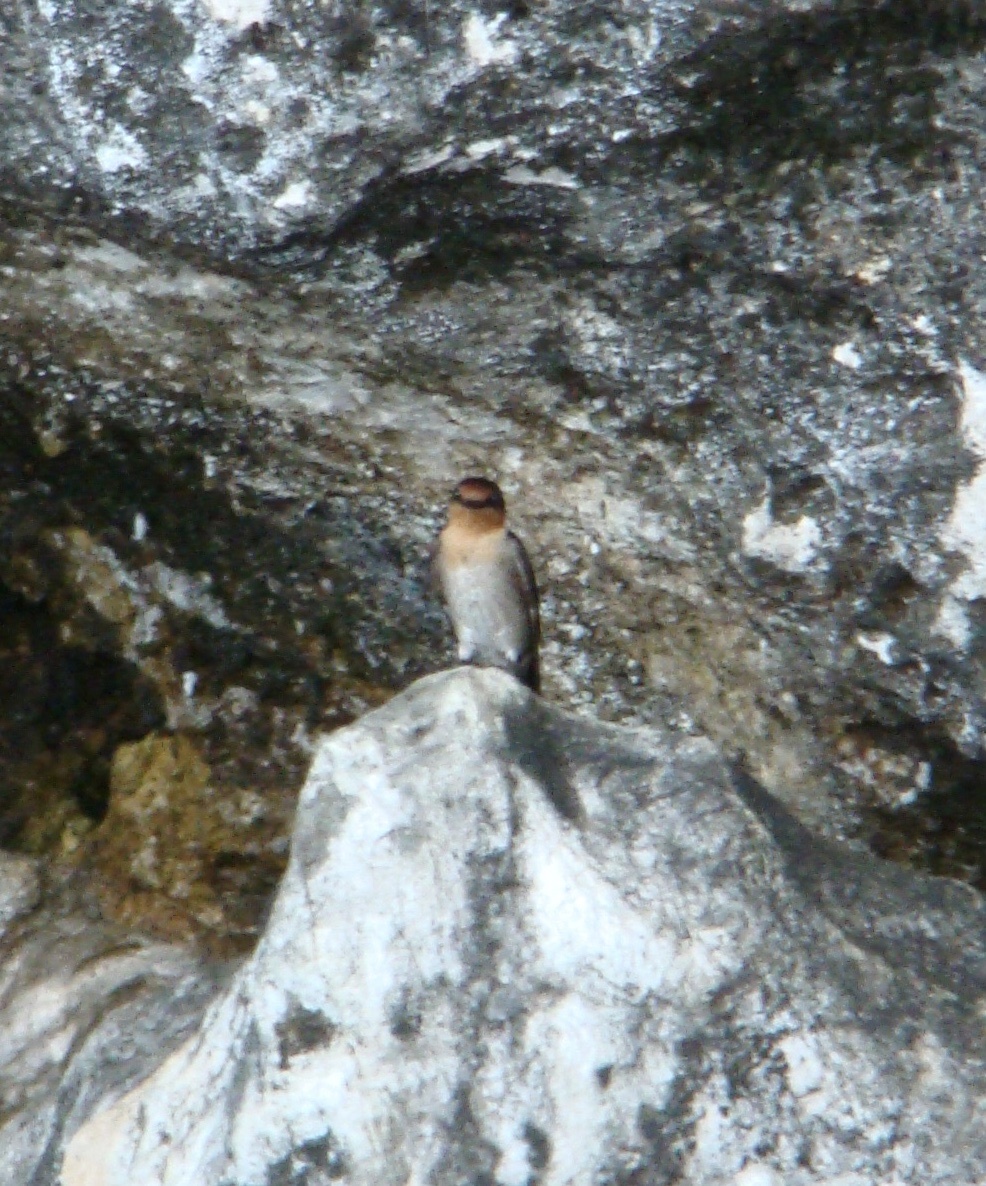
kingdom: Animalia
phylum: Chordata
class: Aves
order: Passeriformes
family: Hirundinidae
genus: Hirundo
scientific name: Hirundo tahitica
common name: Pacific swallow
